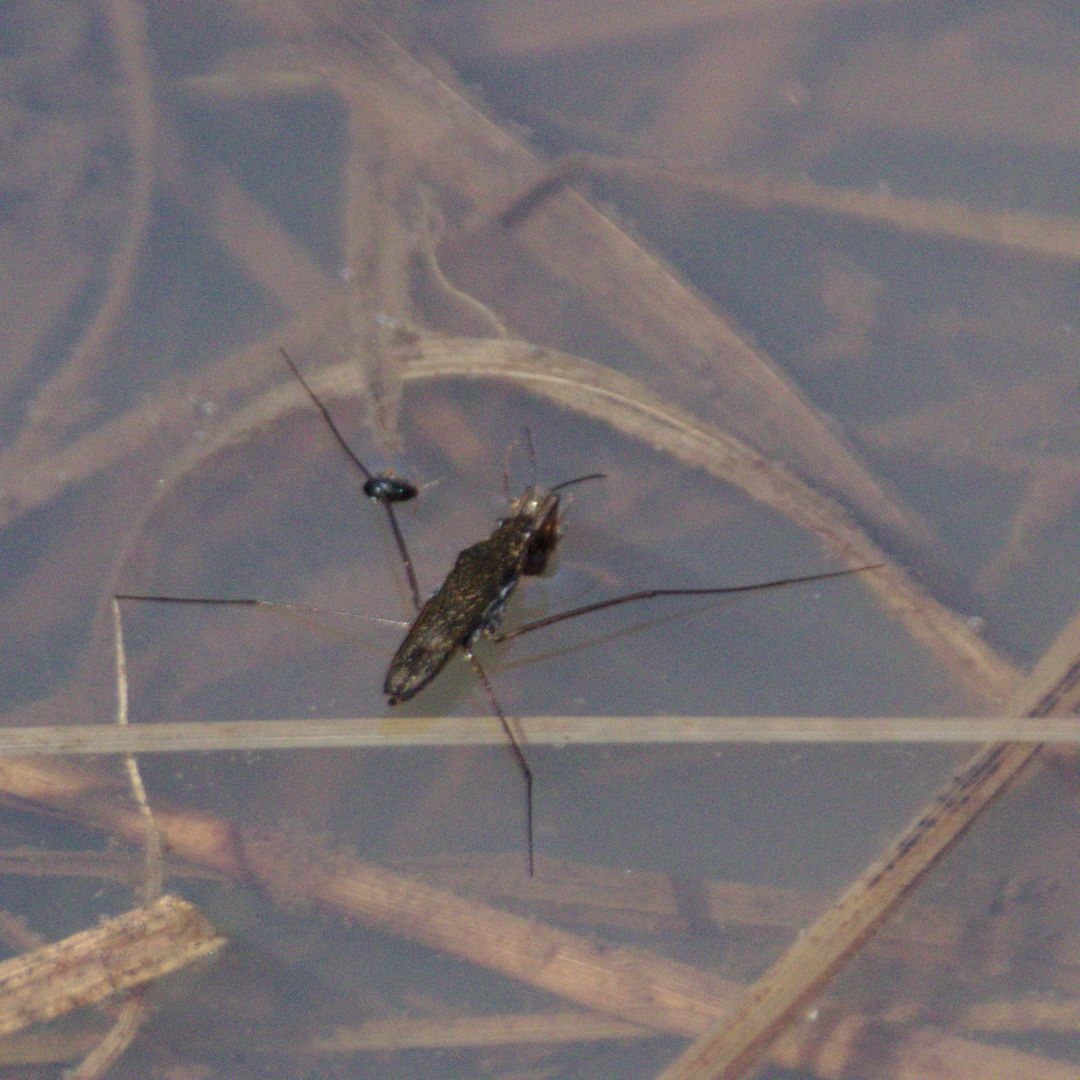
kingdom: Animalia
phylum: Arthropoda
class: Insecta
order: Hemiptera
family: Gerridae
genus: Gerris
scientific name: Gerris
